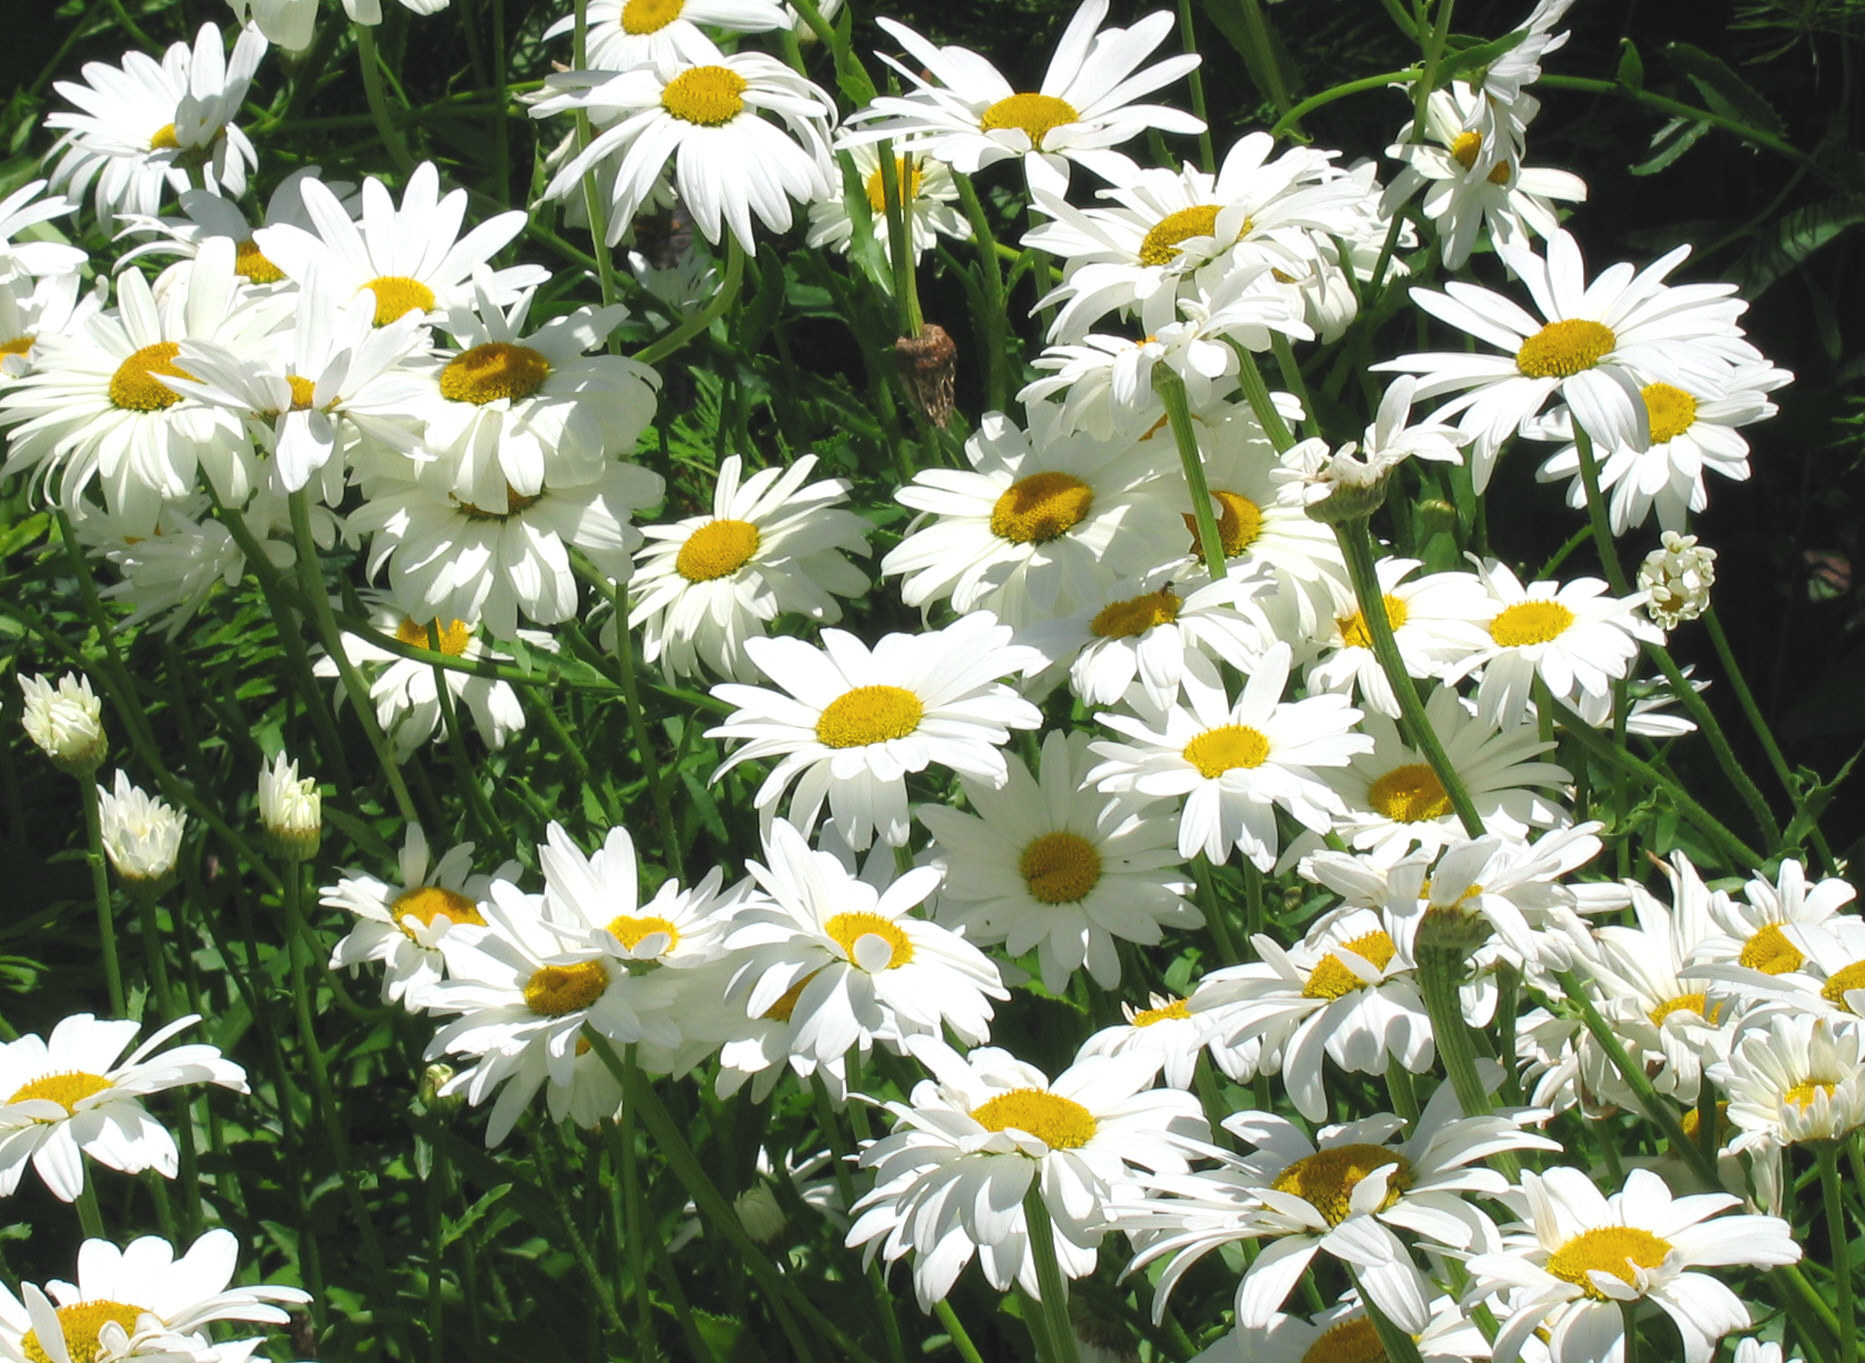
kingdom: Plantae
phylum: Tracheophyta
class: Magnoliopsida
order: Asterales
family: Asteraceae
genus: Leucanthemum
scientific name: Leucanthemum vulgare
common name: Oxeye daisy
